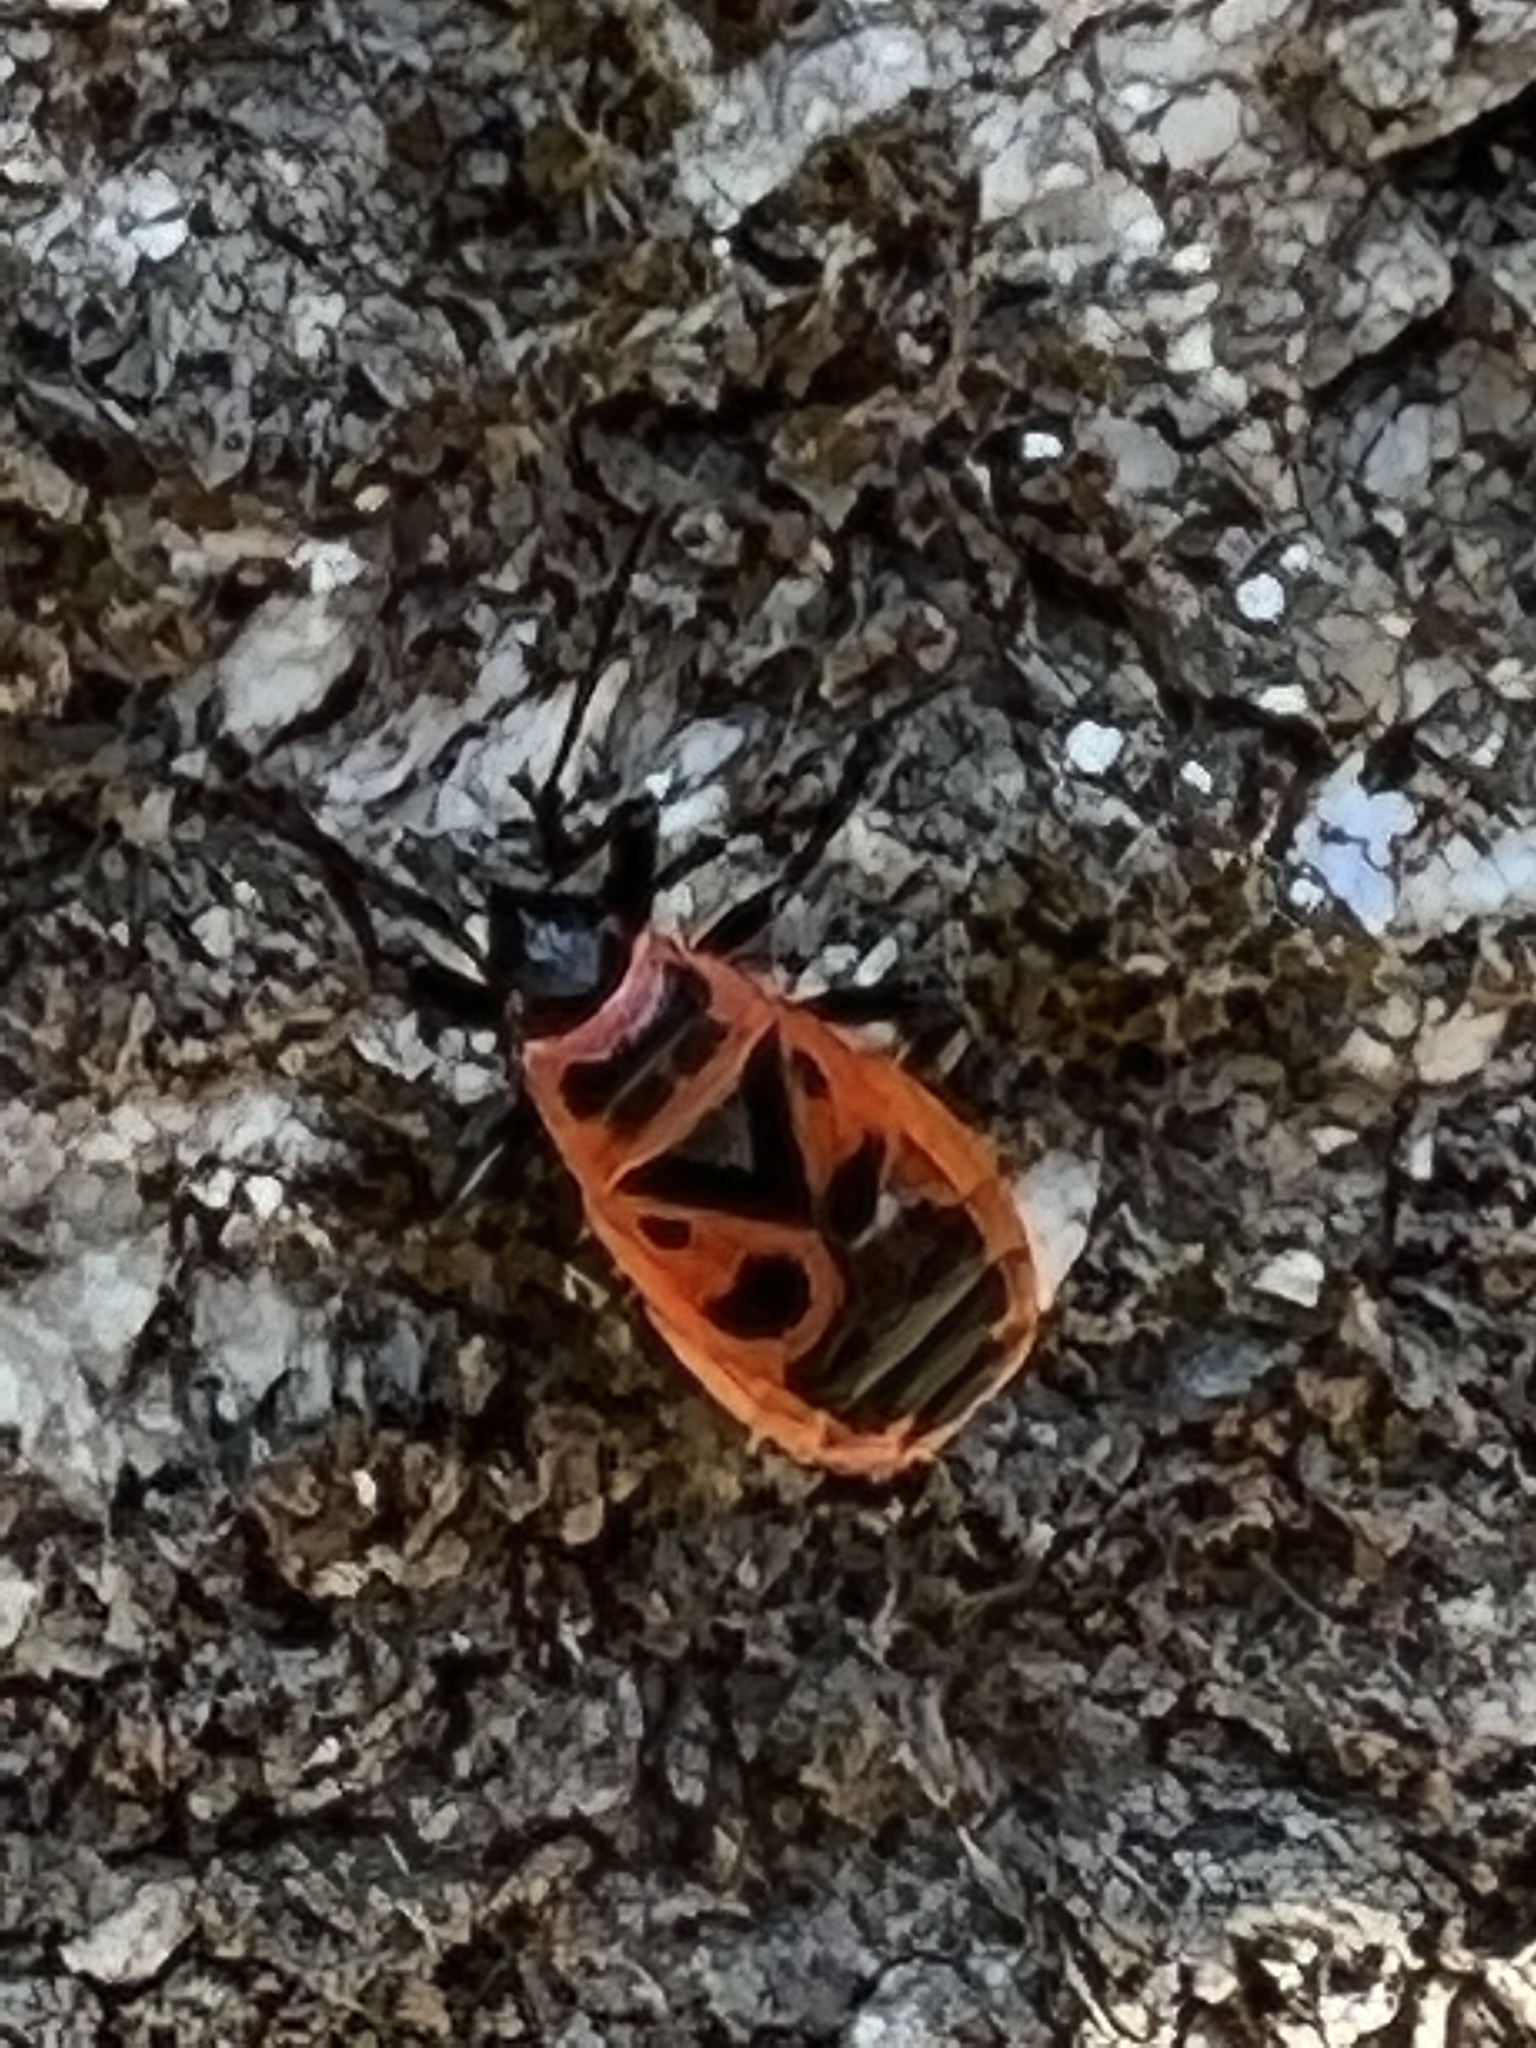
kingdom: Animalia
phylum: Arthropoda
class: Insecta
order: Hemiptera
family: Pyrrhocoridae
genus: Pyrrhocoris
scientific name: Pyrrhocoris apterus
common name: Firebug
